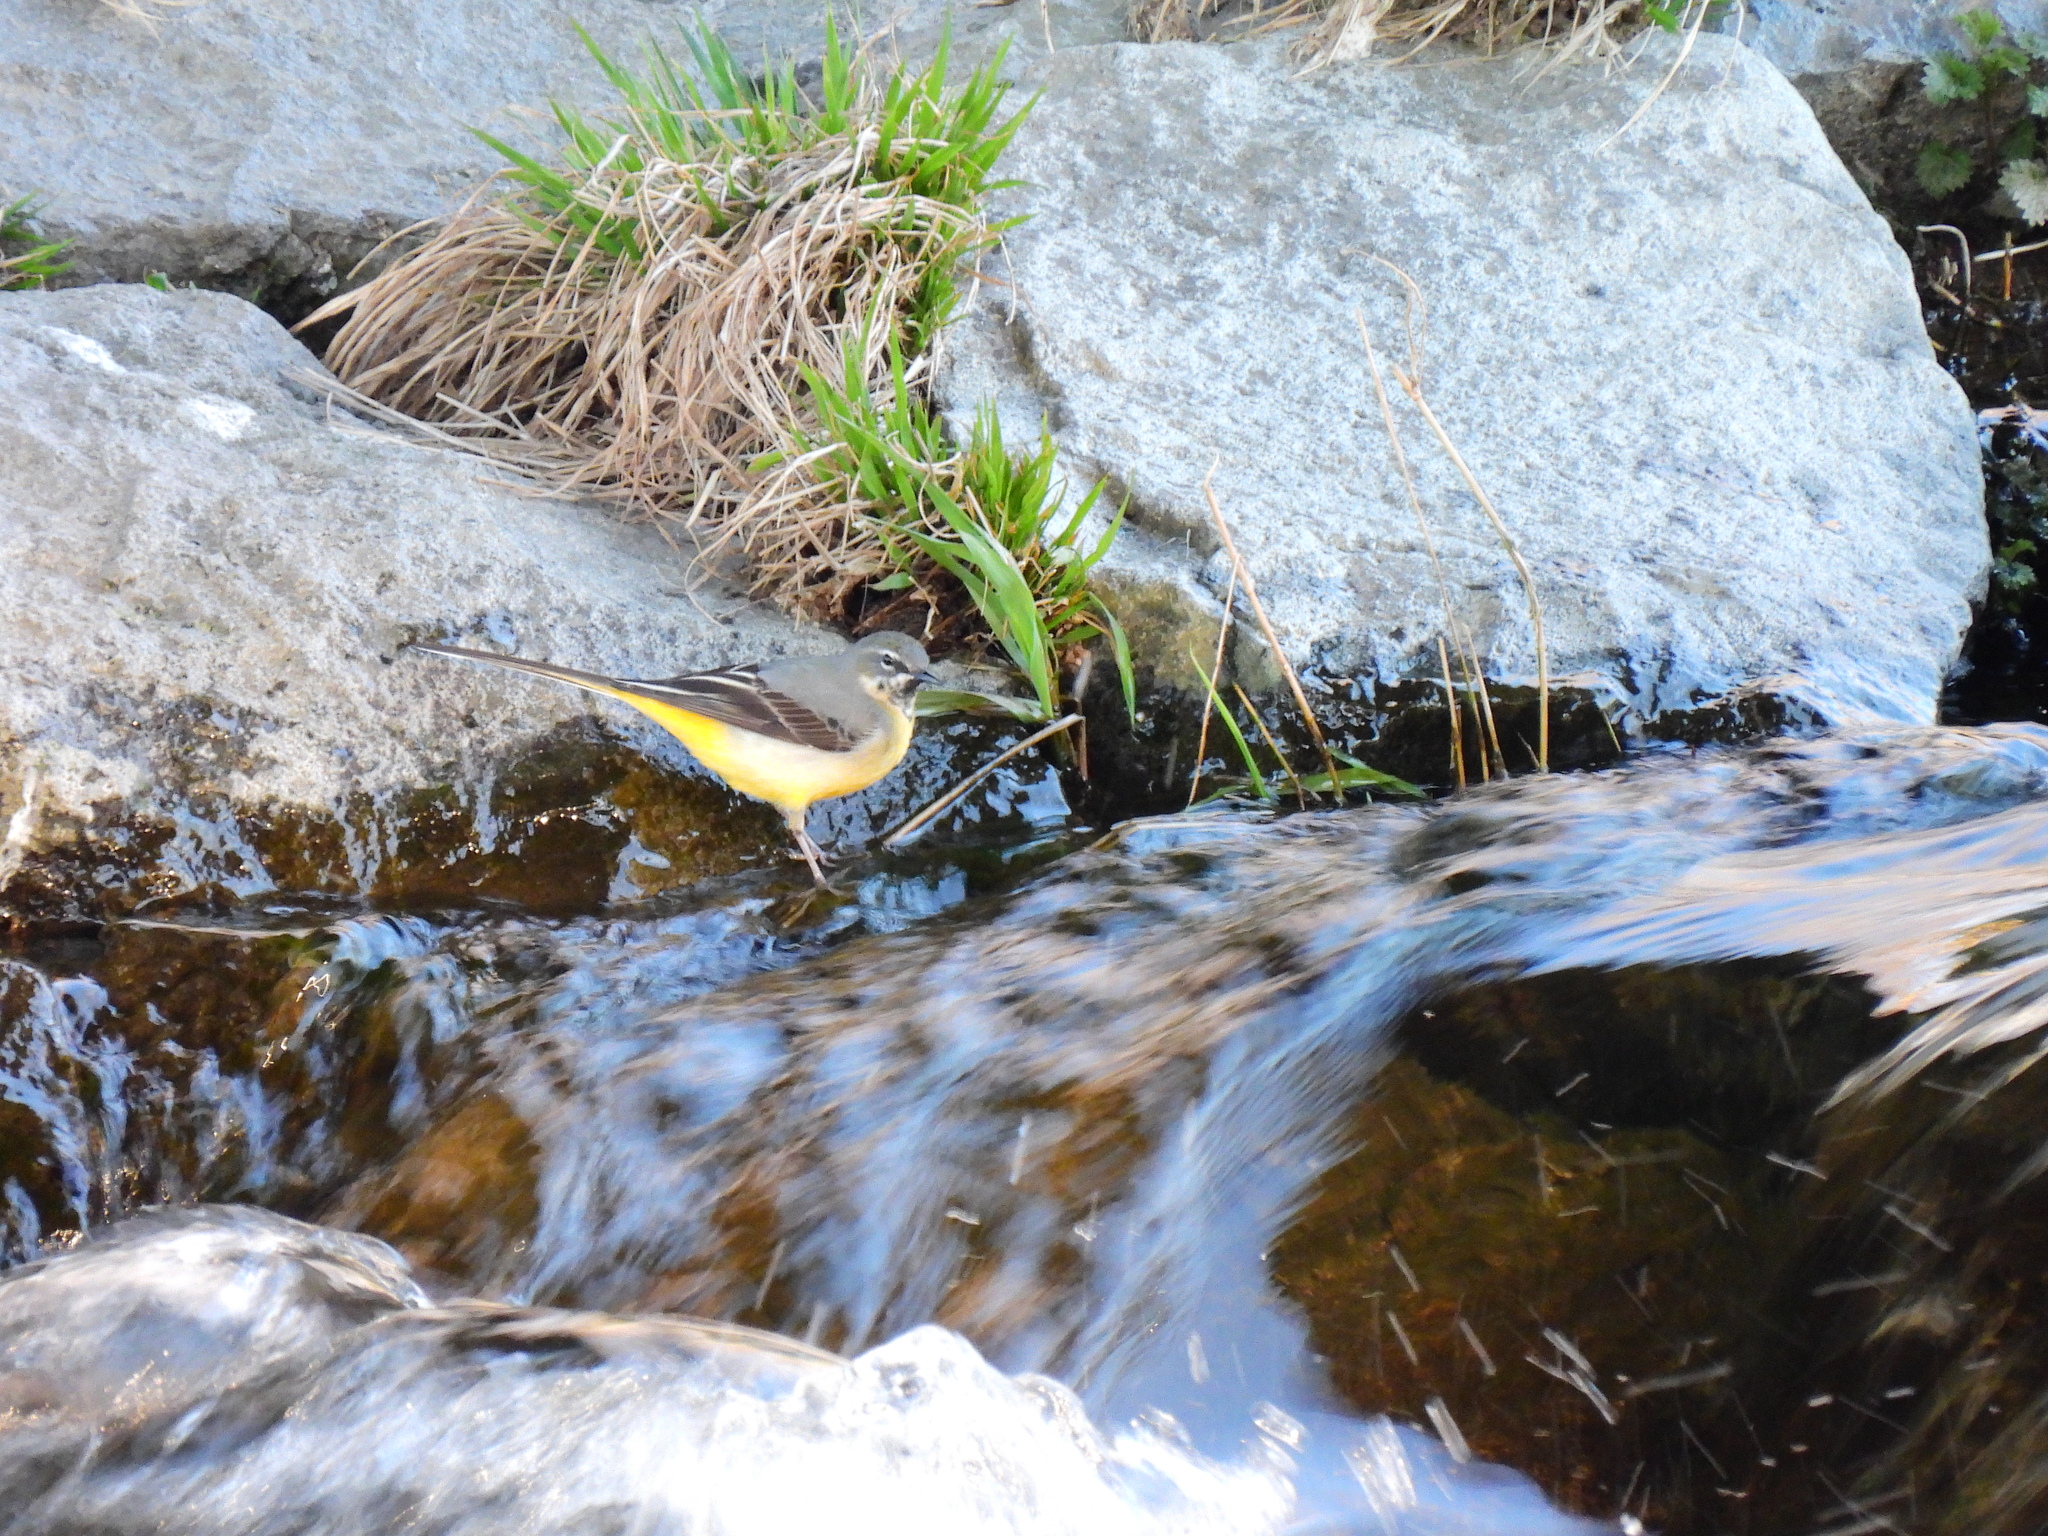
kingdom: Animalia
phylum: Chordata
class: Aves
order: Passeriformes
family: Motacillidae
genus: Motacilla
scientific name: Motacilla cinerea
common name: Grey wagtail
